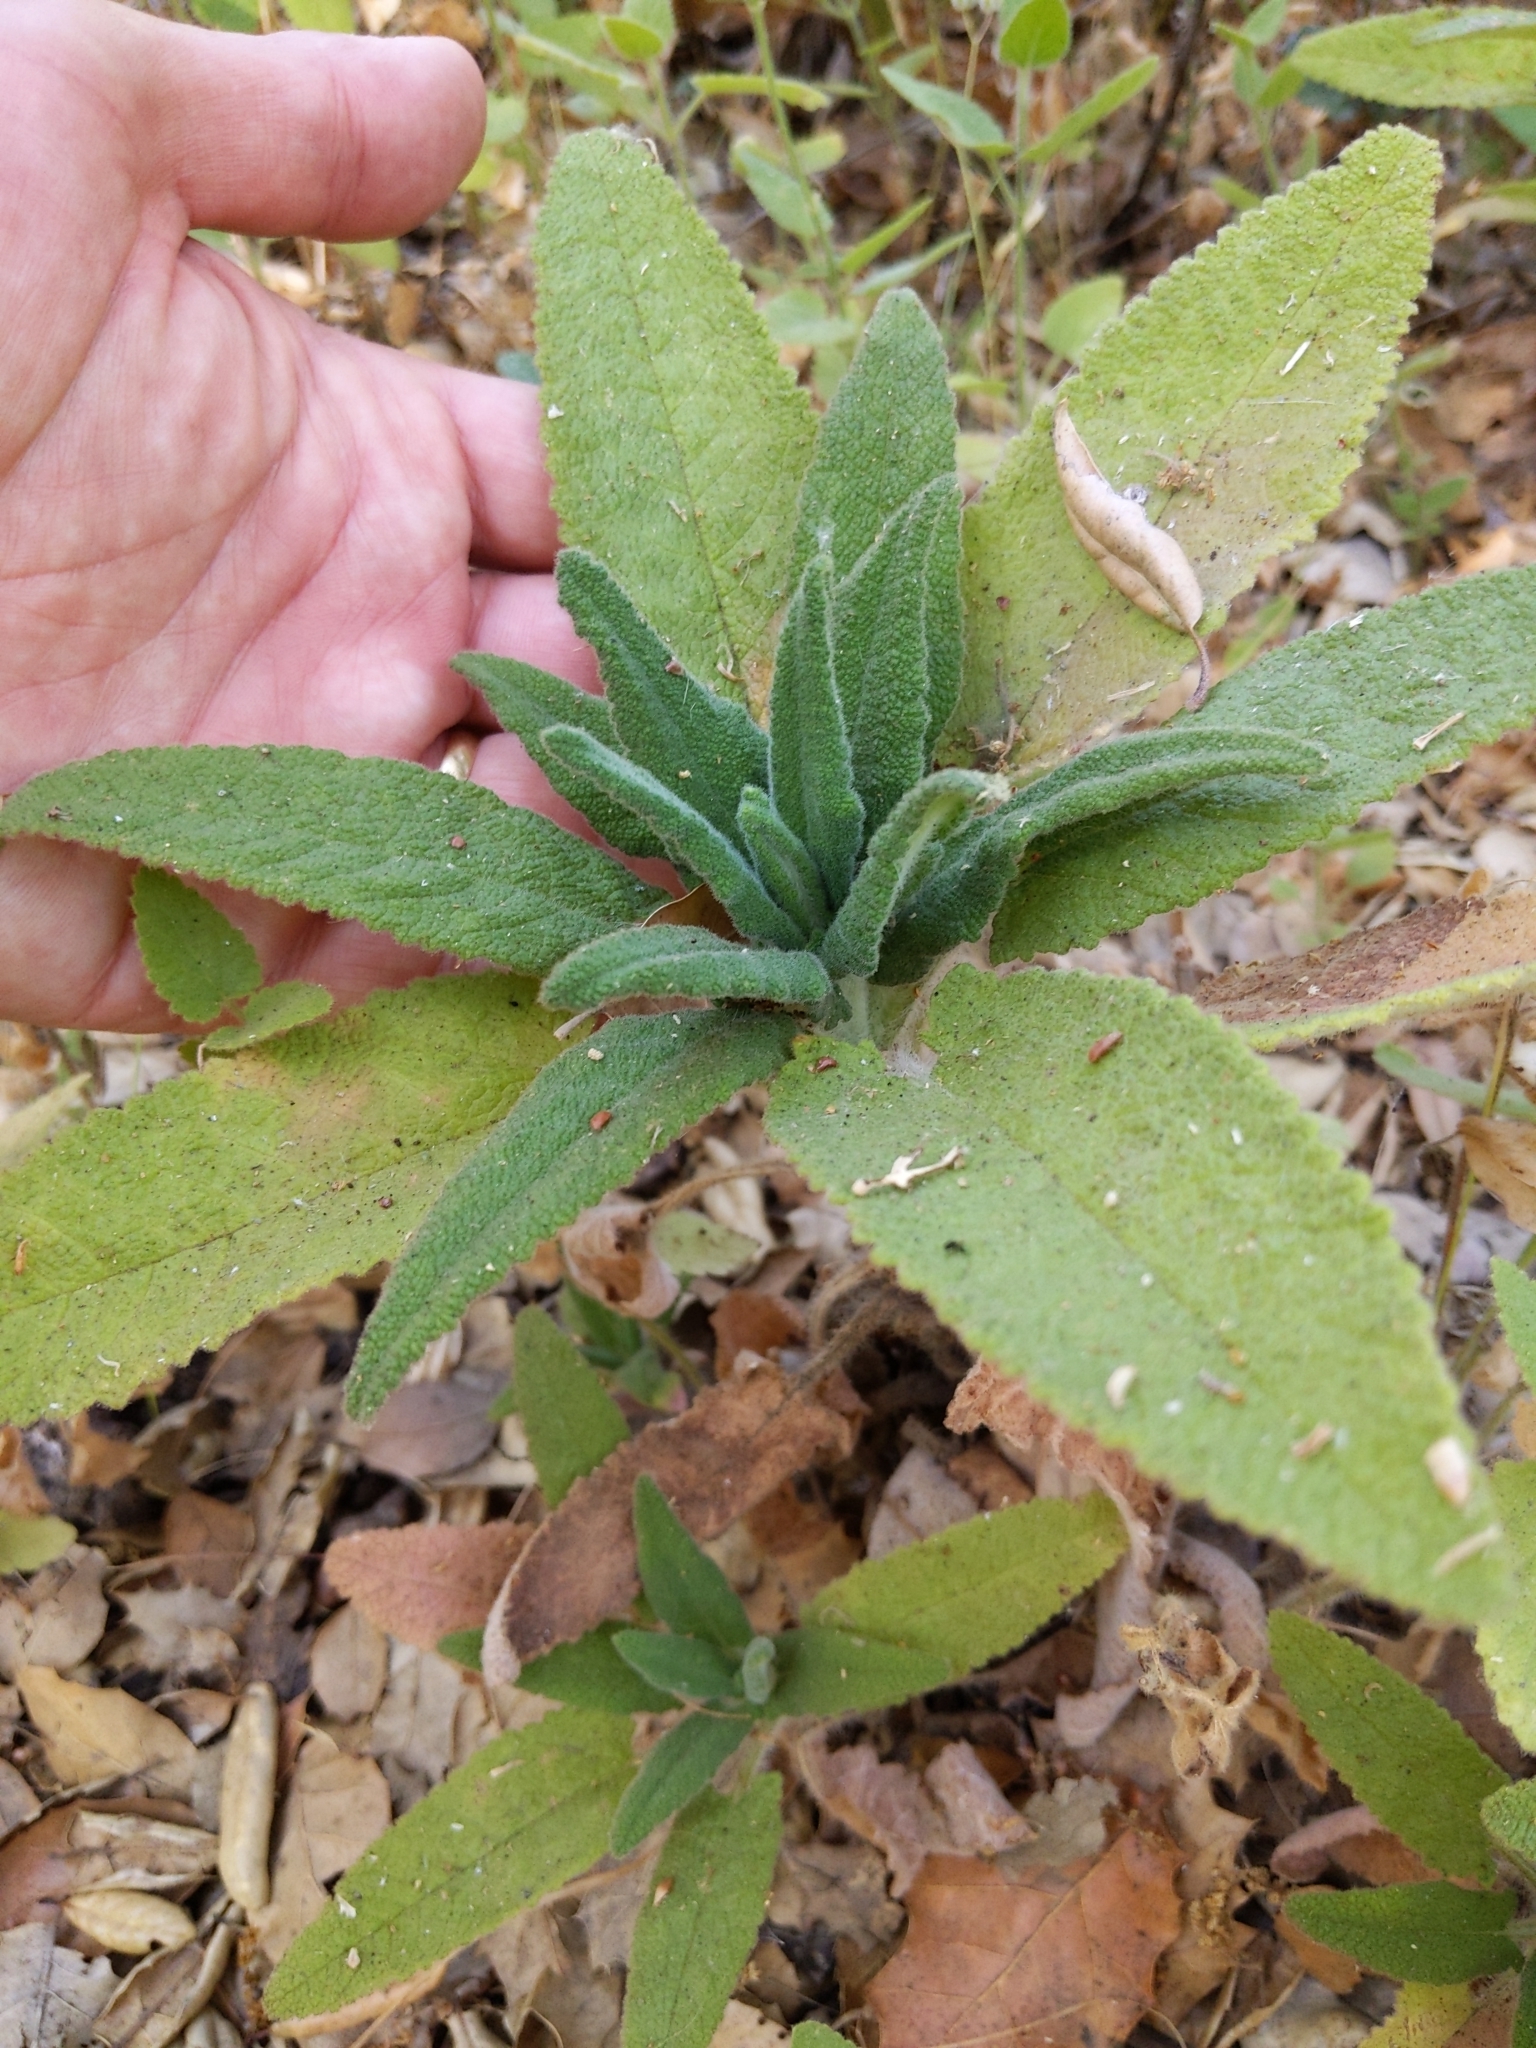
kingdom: Plantae
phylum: Tracheophyta
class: Magnoliopsida
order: Lamiales
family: Lamiaceae
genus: Salvia
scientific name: Salvia spathacea
